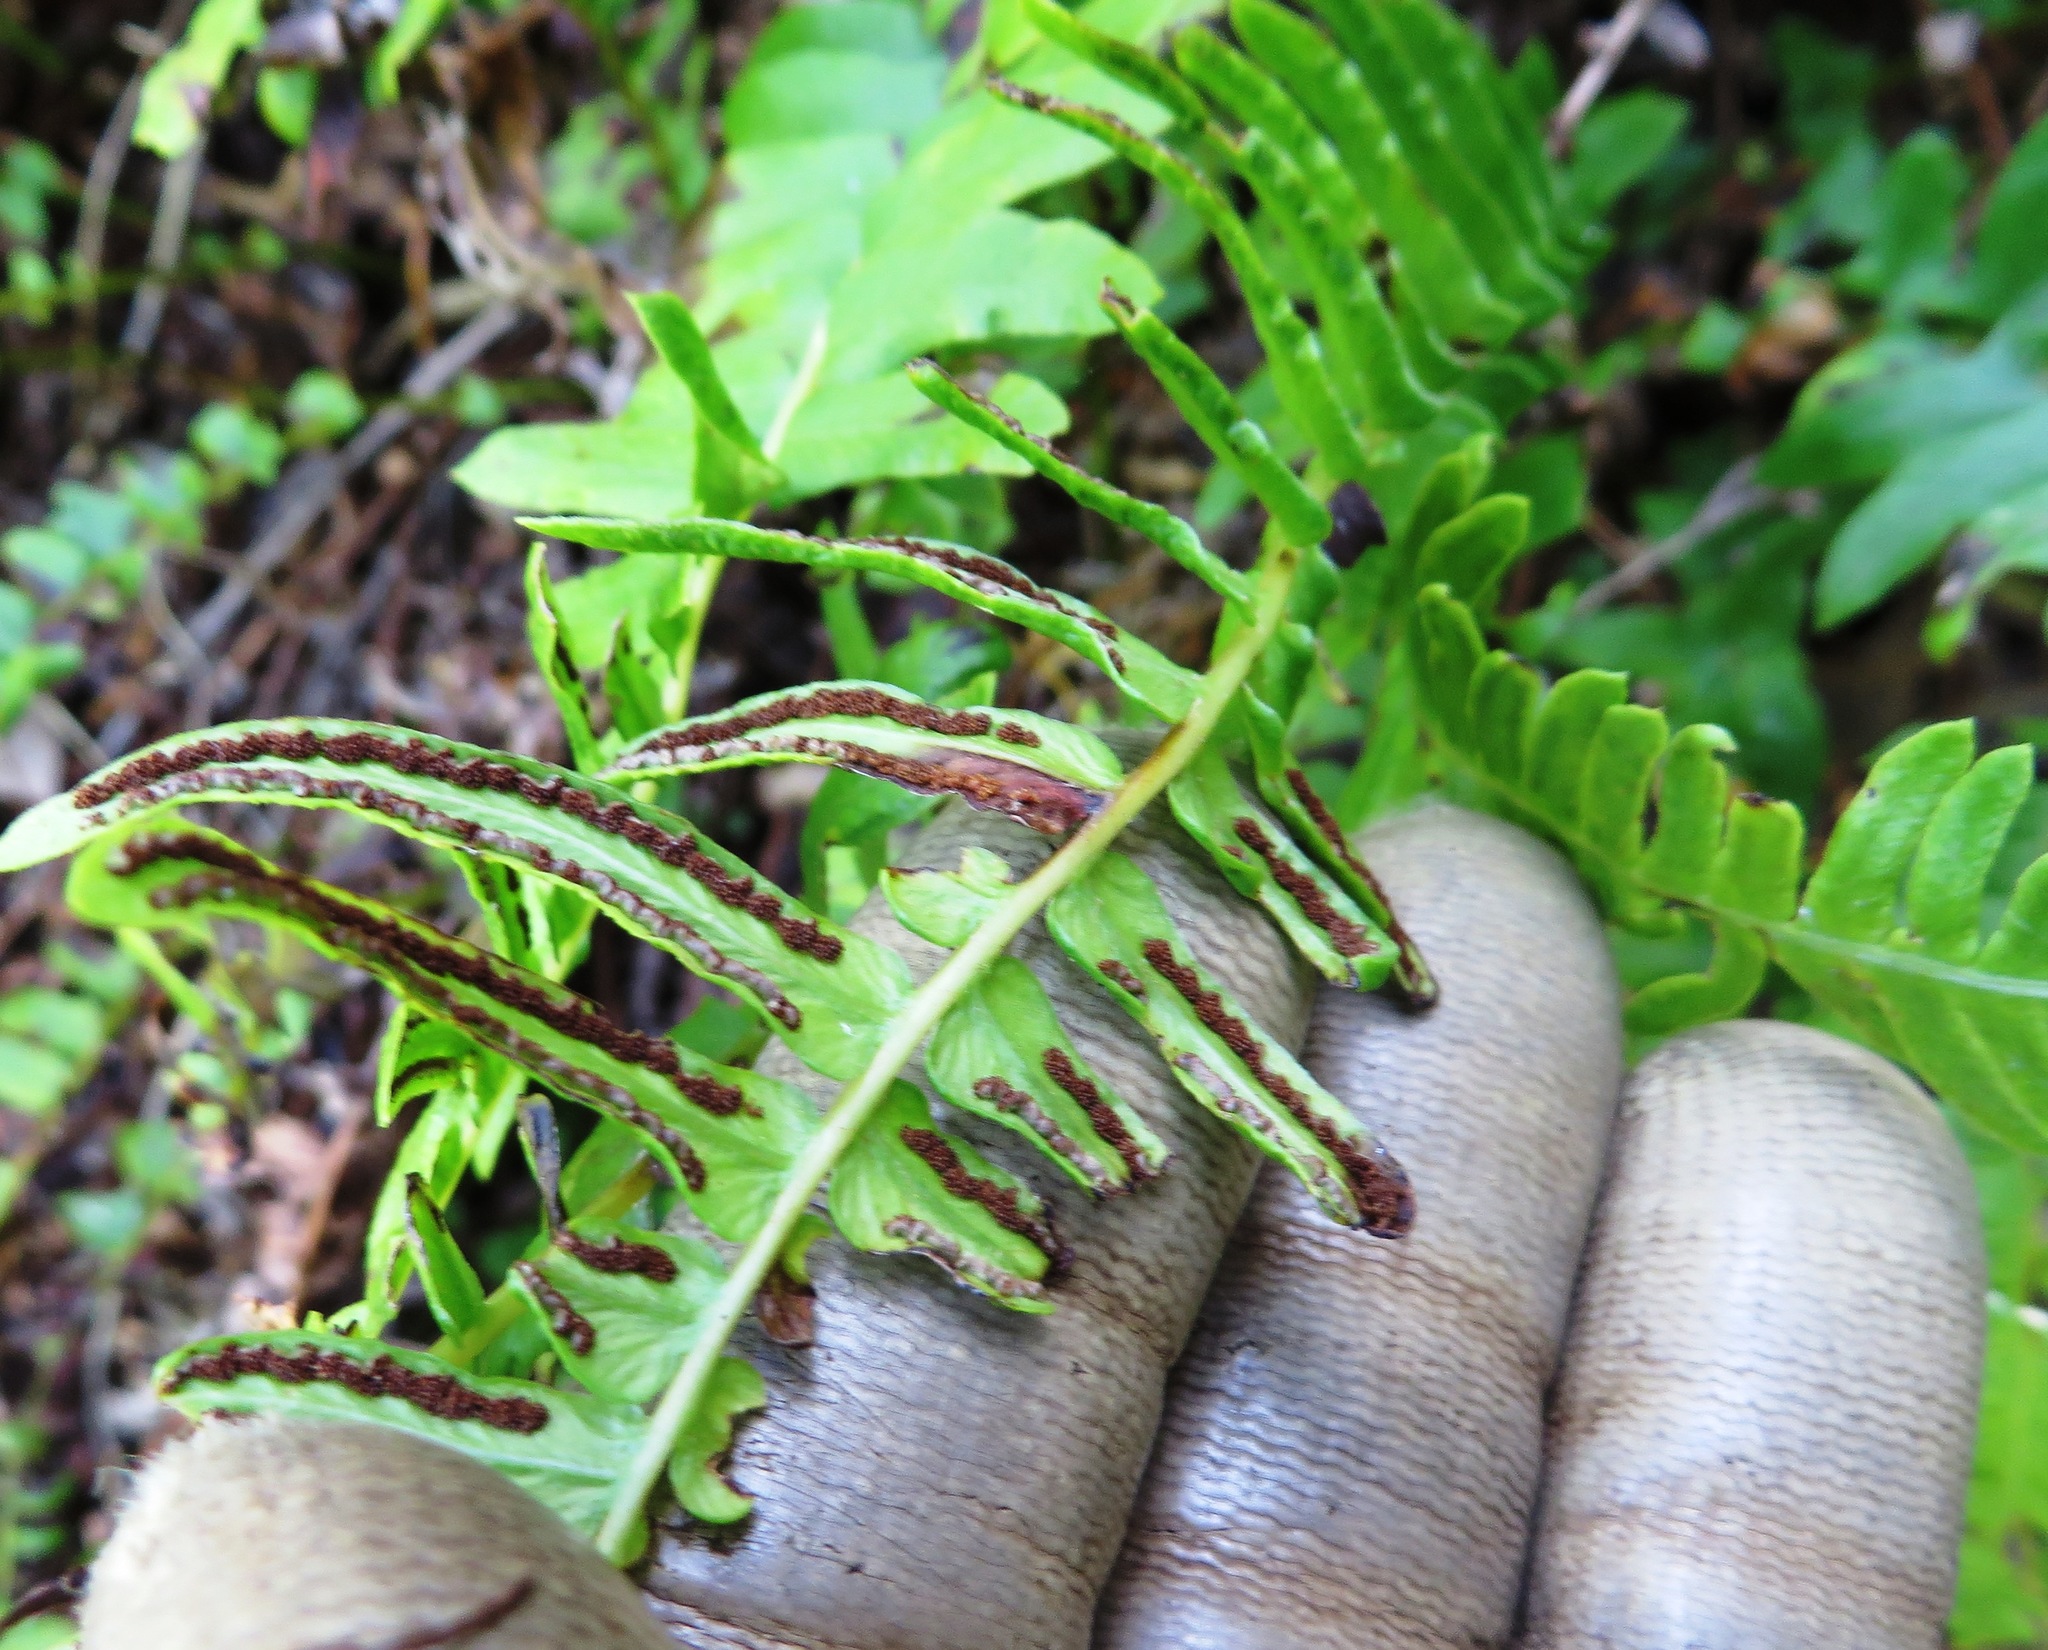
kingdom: Plantae
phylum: Tracheophyta
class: Polypodiopsida
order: Polypodiales
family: Blechnaceae
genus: Blechnum
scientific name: Blechnum australe
